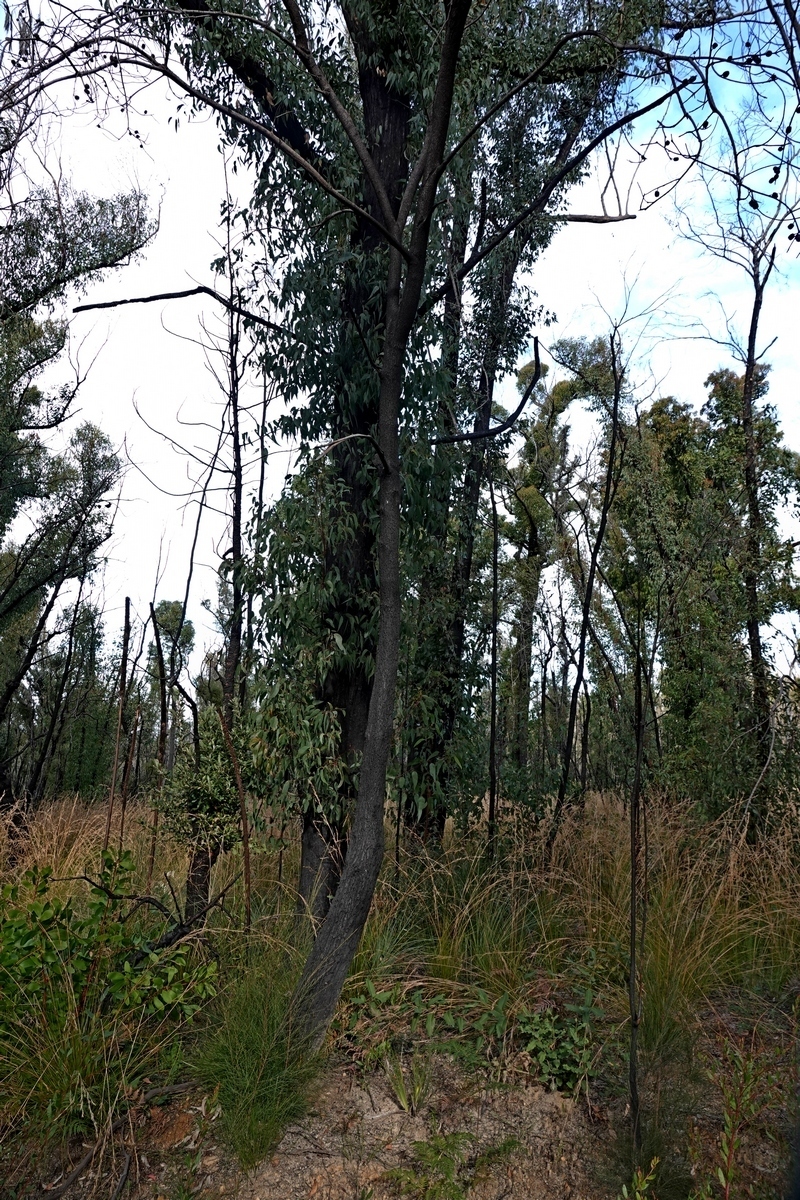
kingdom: Plantae
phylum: Tracheophyta
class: Magnoliopsida
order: Fagales
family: Casuarinaceae
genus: Allocasuarina
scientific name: Allocasuarina littoralis
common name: Black she-oak
